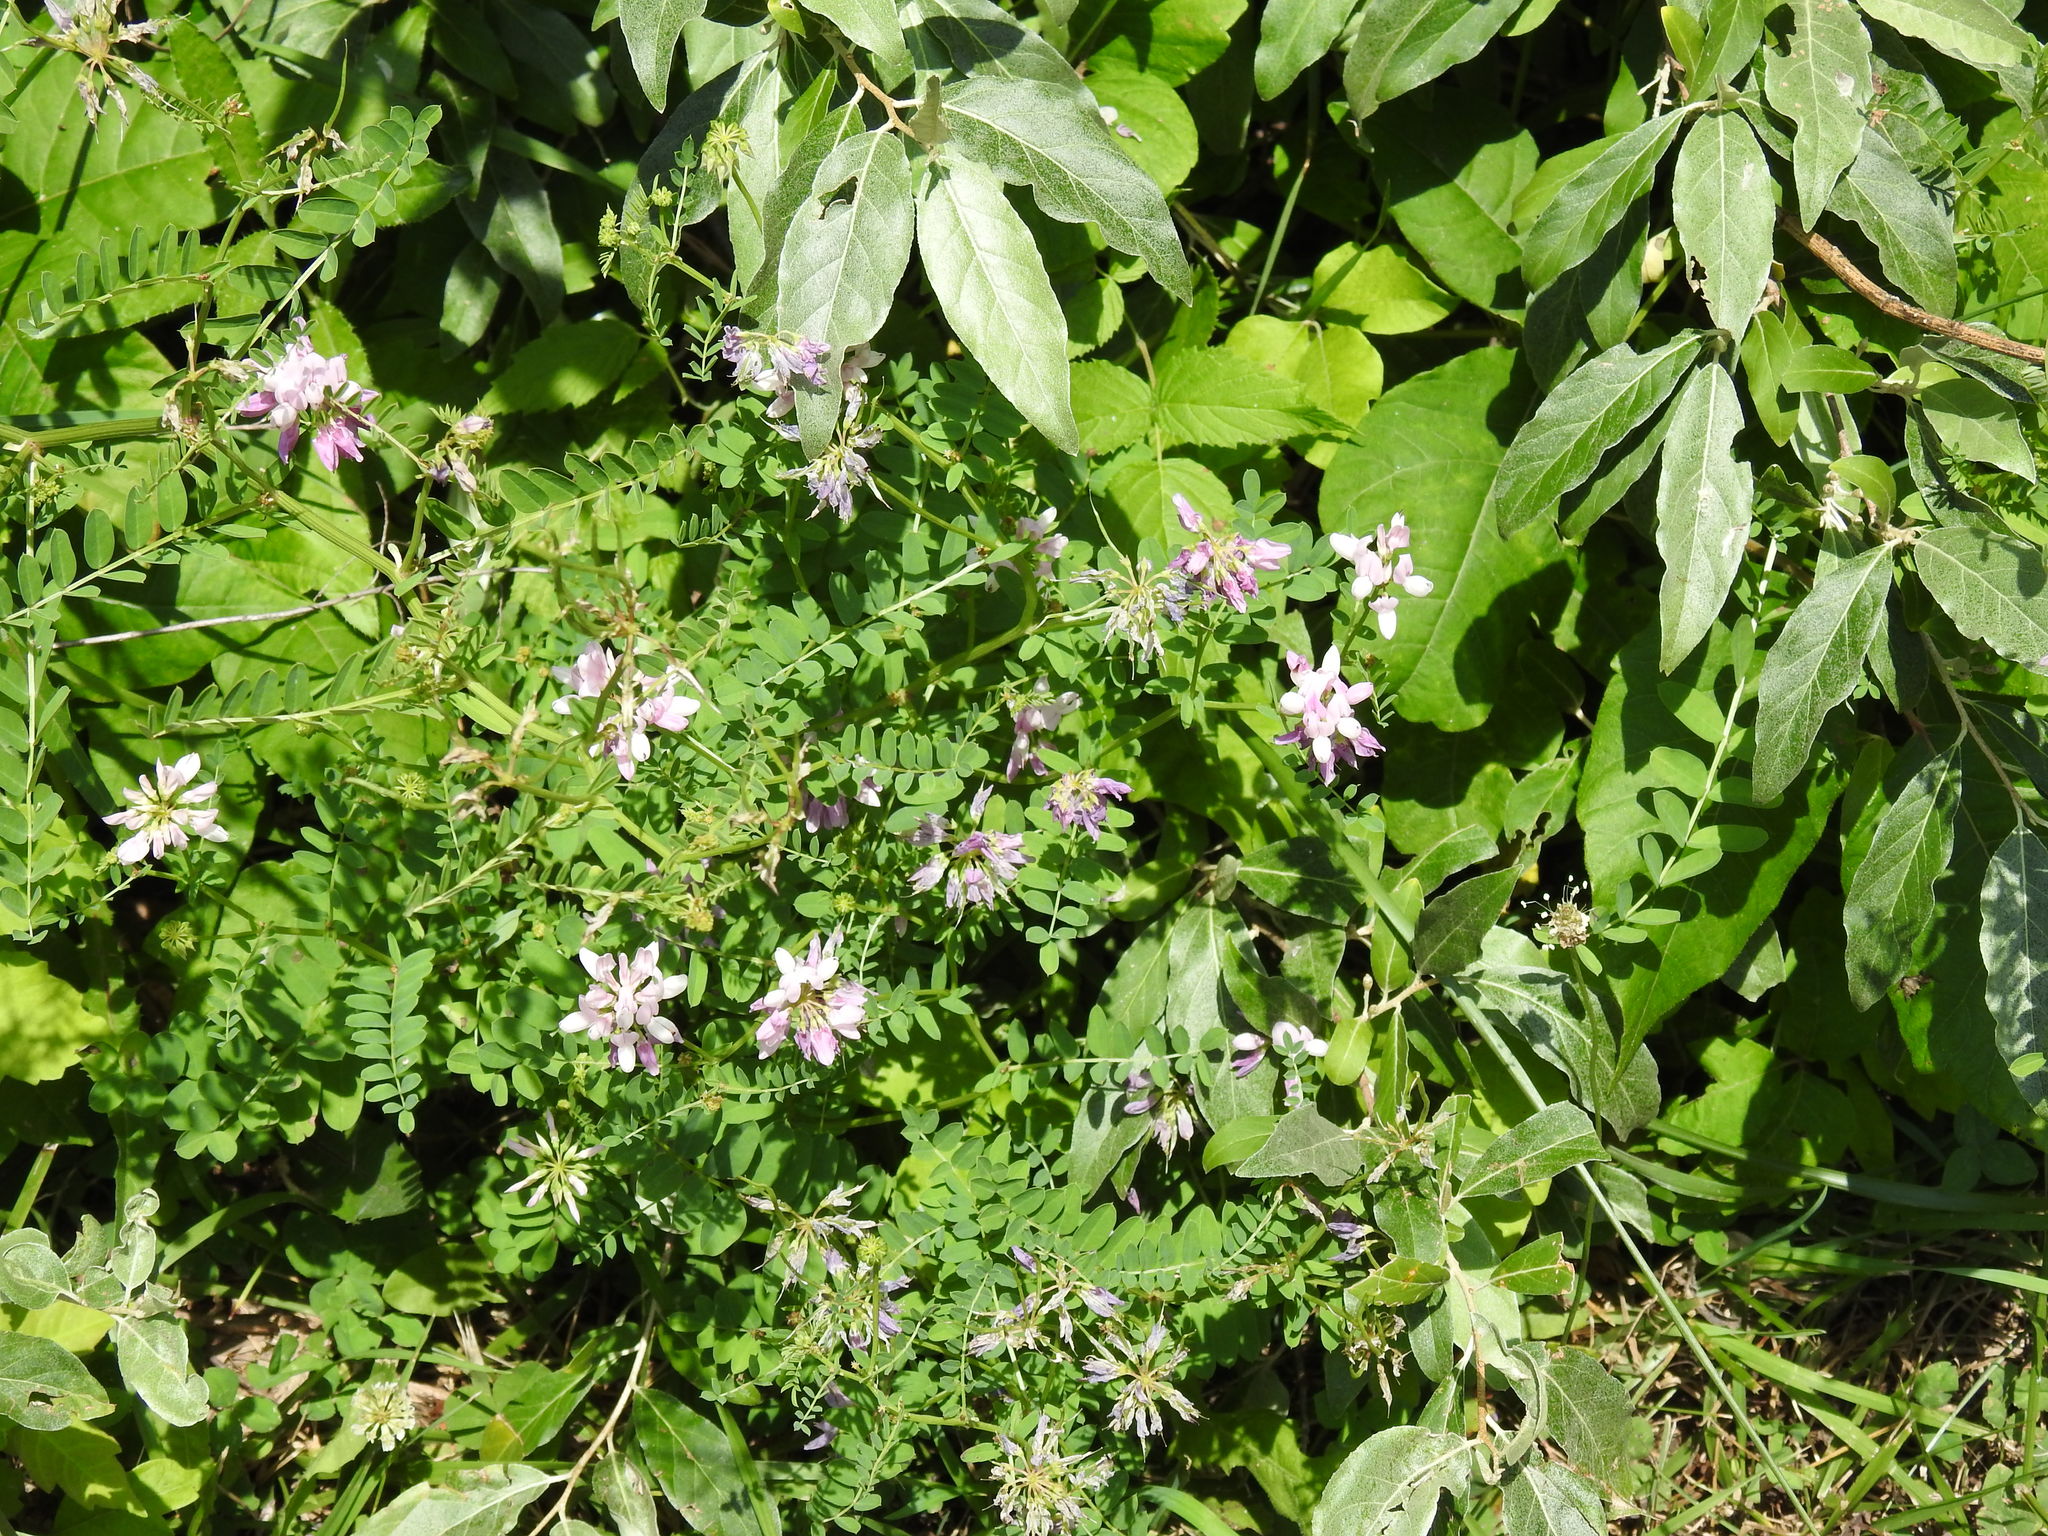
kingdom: Plantae
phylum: Tracheophyta
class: Magnoliopsida
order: Fabales
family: Fabaceae
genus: Coronilla
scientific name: Coronilla varia
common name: Crownvetch
